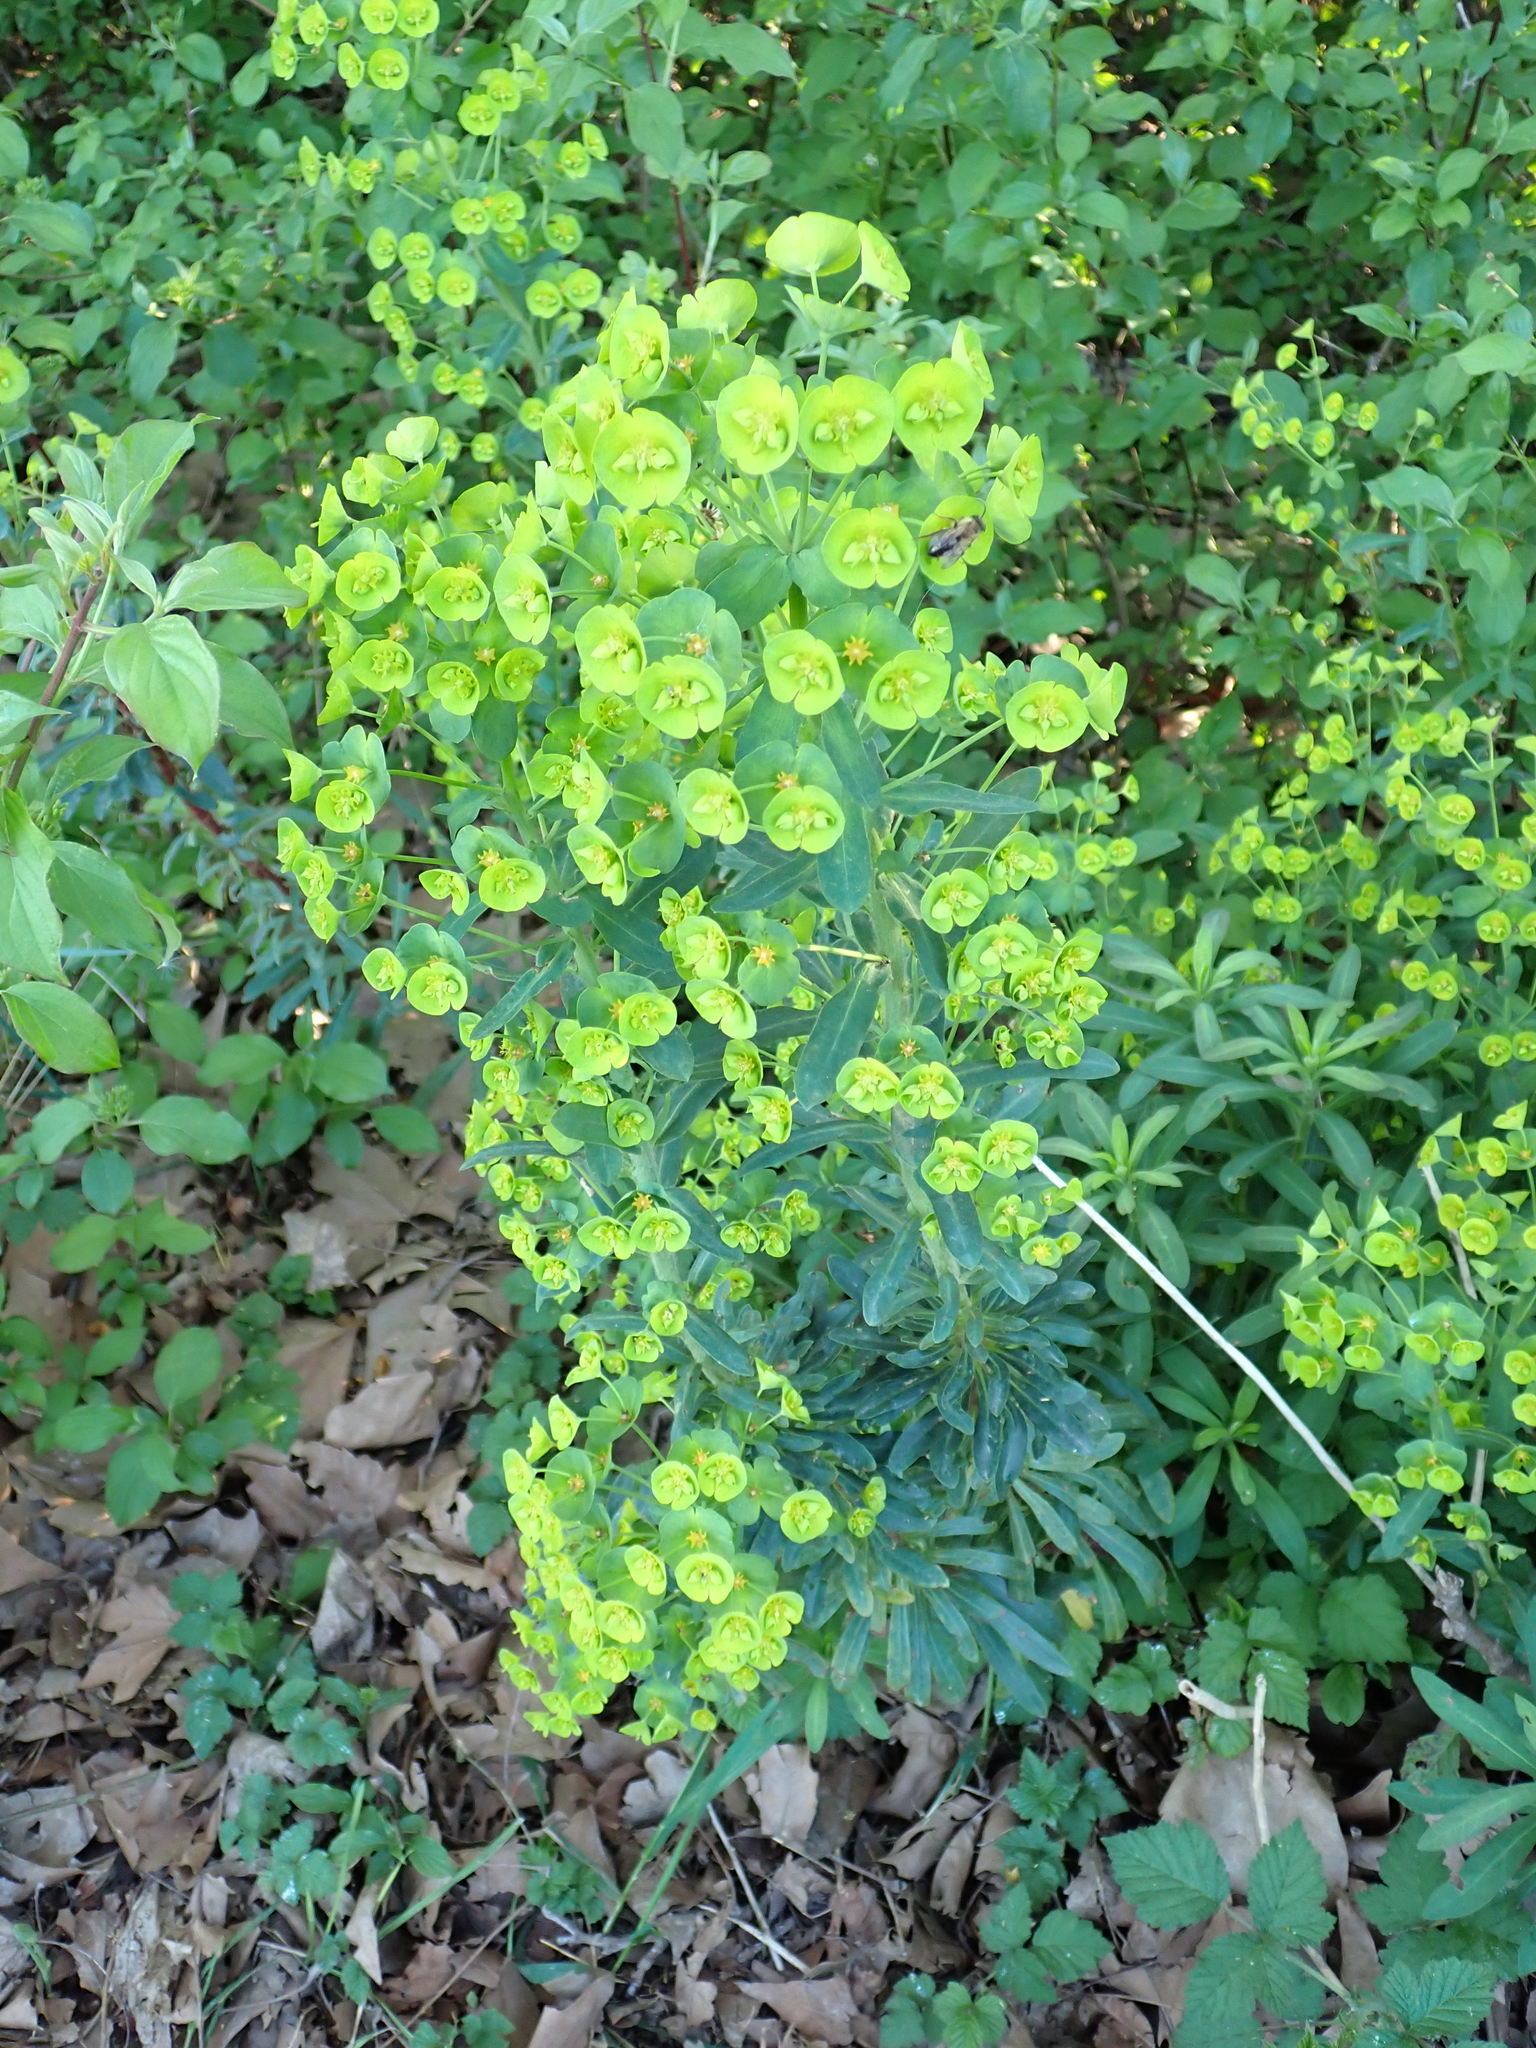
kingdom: Plantae
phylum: Tracheophyta
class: Magnoliopsida
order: Malpighiales
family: Euphorbiaceae
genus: Euphorbia
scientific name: Euphorbia amygdaloides
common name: Wood spurge
